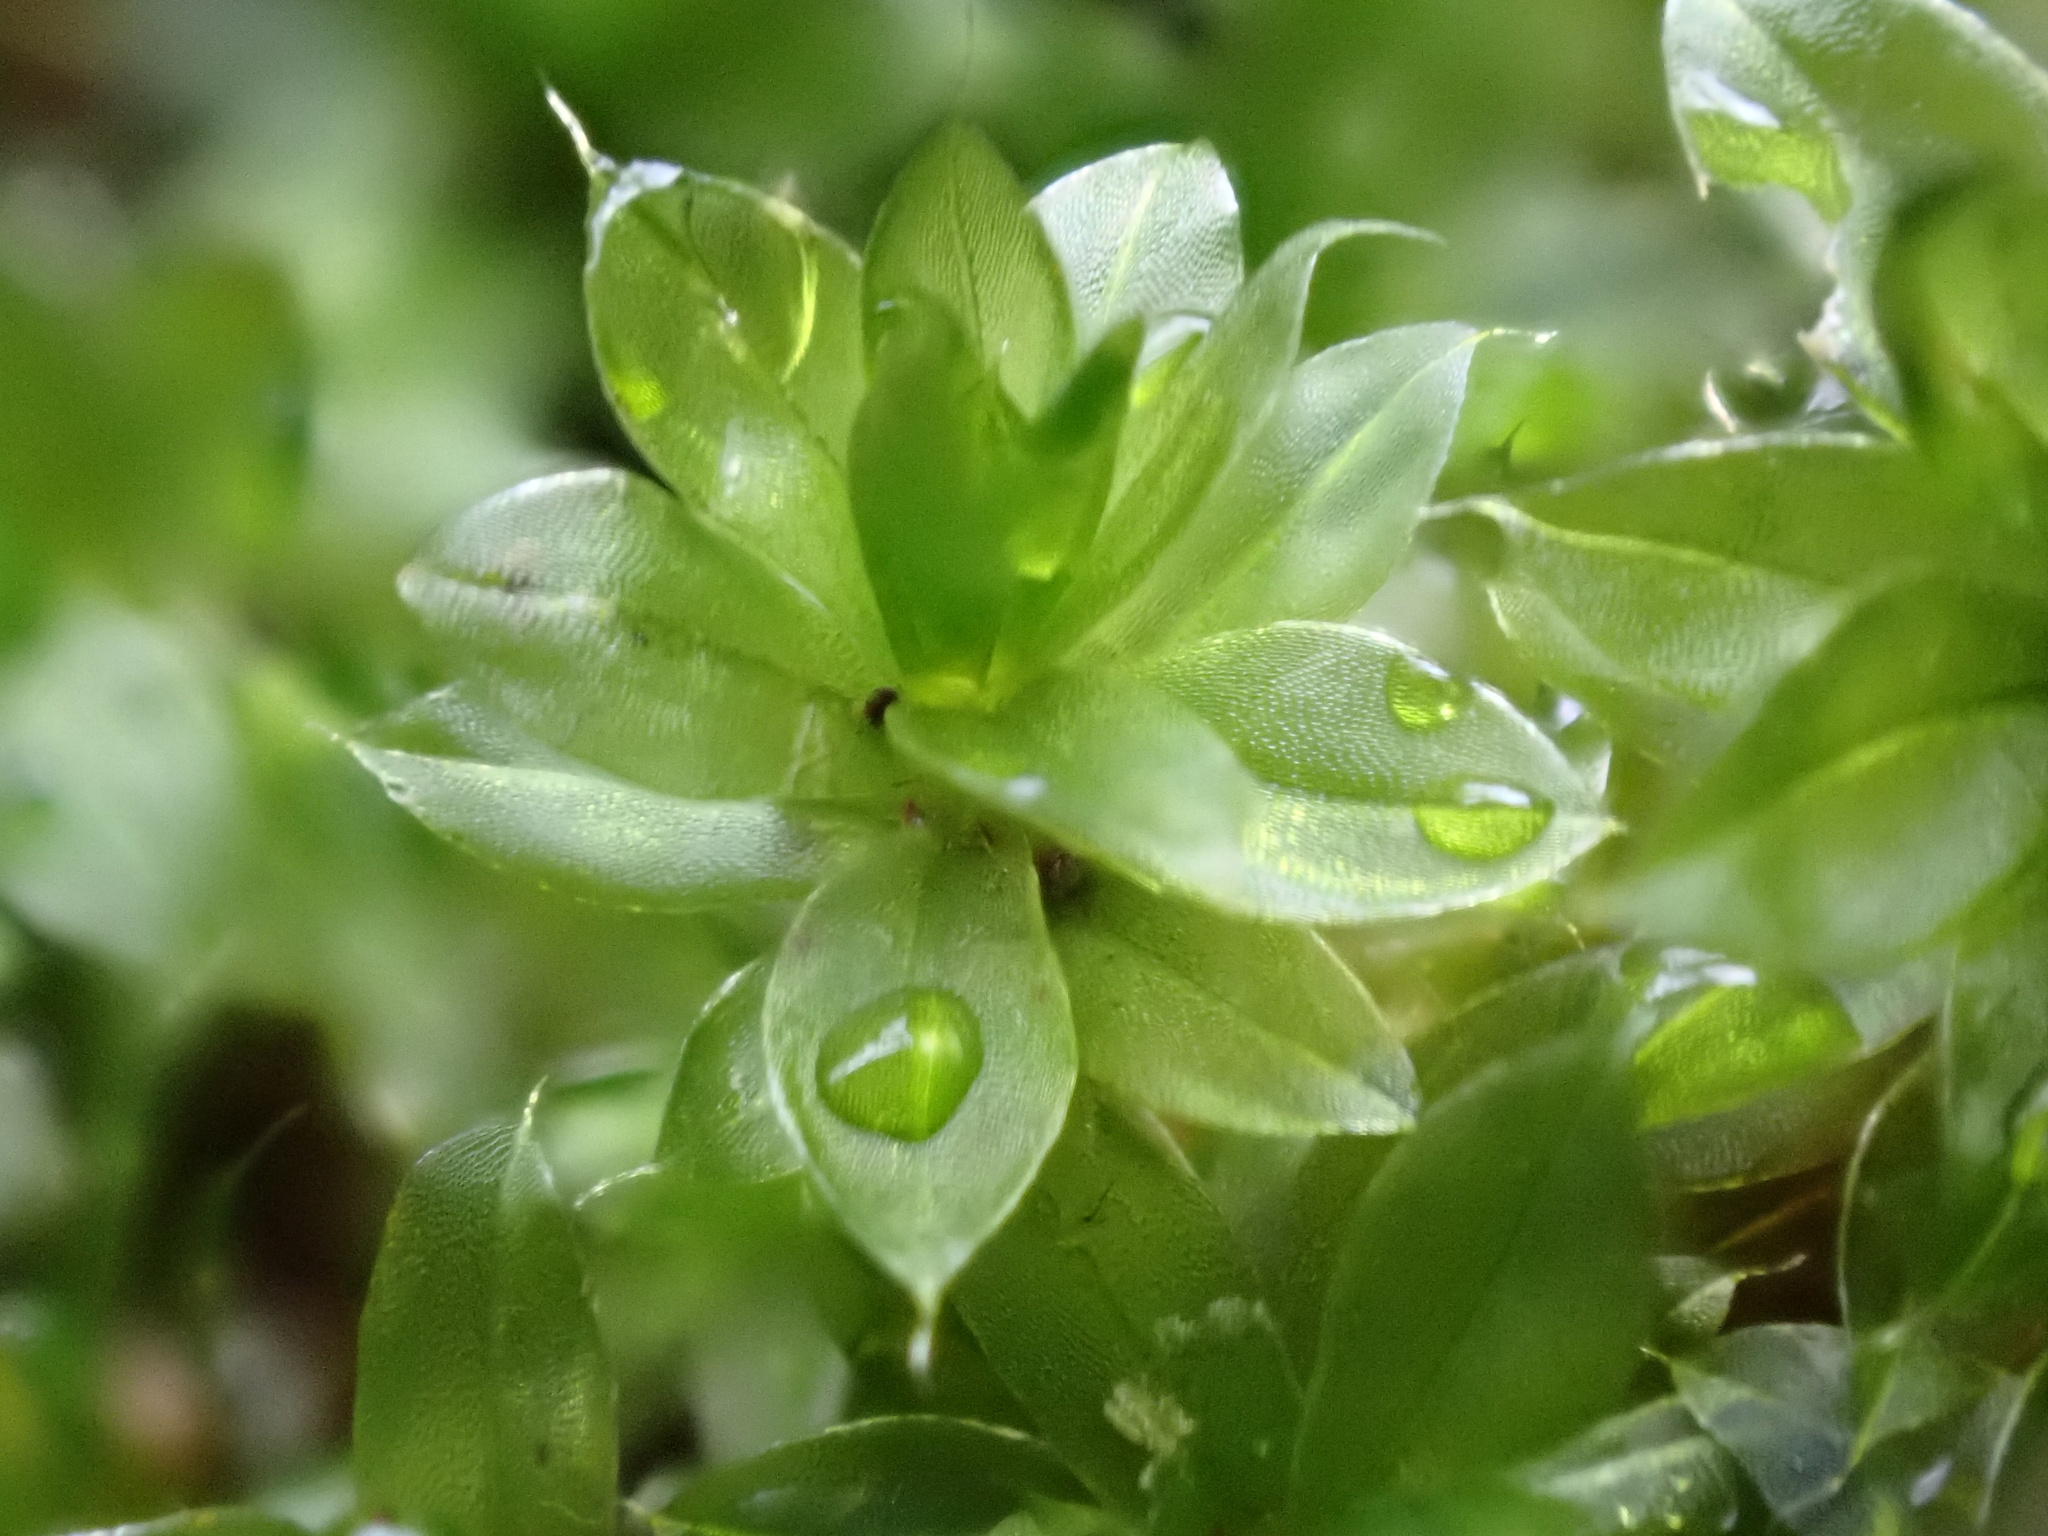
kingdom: Plantae
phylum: Bryophyta
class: Bryopsida
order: Bryales
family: Bryaceae
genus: Rosulabryum
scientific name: Rosulabryum capillare
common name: Capillary thread-moss
